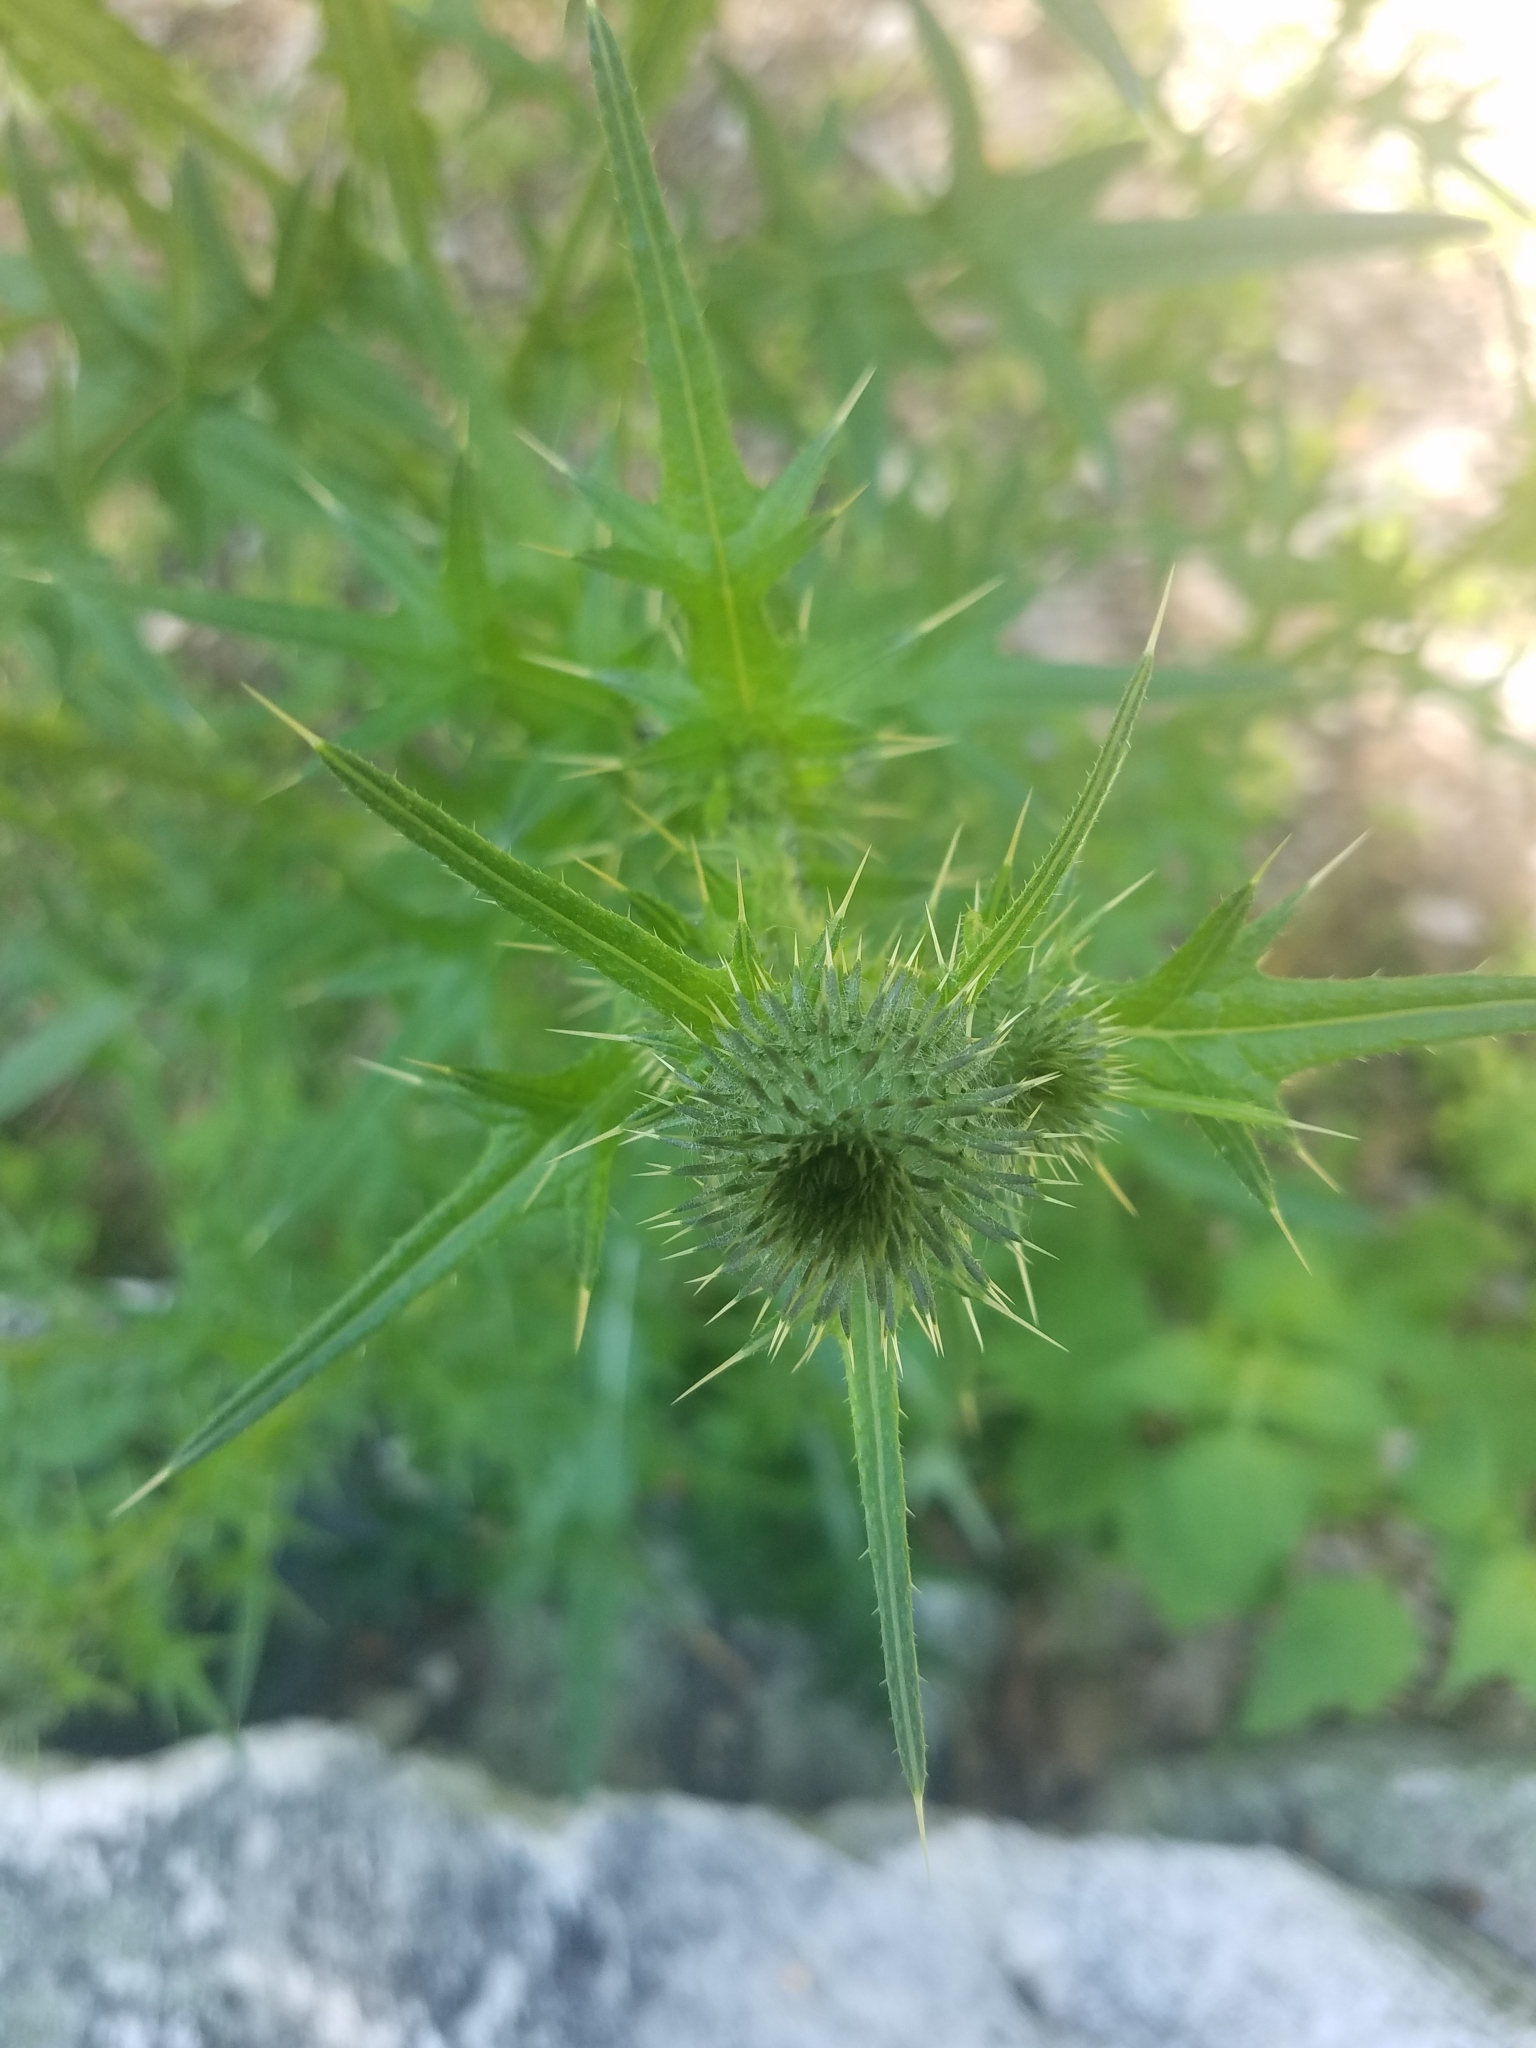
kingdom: Plantae
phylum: Tracheophyta
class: Magnoliopsida
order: Asterales
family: Asteraceae
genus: Cirsium
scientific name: Cirsium vulgare
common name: Bull thistle
